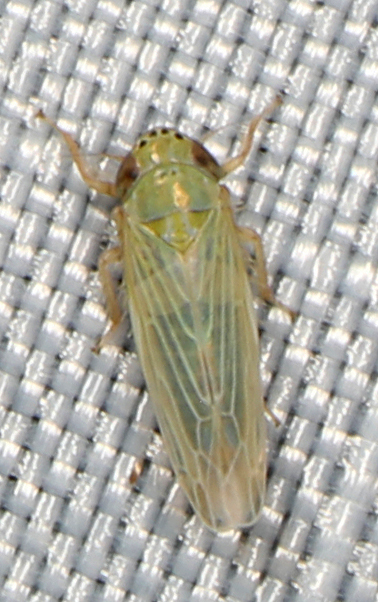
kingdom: Animalia
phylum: Arthropoda
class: Insecta
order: Hemiptera
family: Cicadellidae
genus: Graminella
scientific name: Graminella nigrifrons
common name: Blackfaced leafhopper
